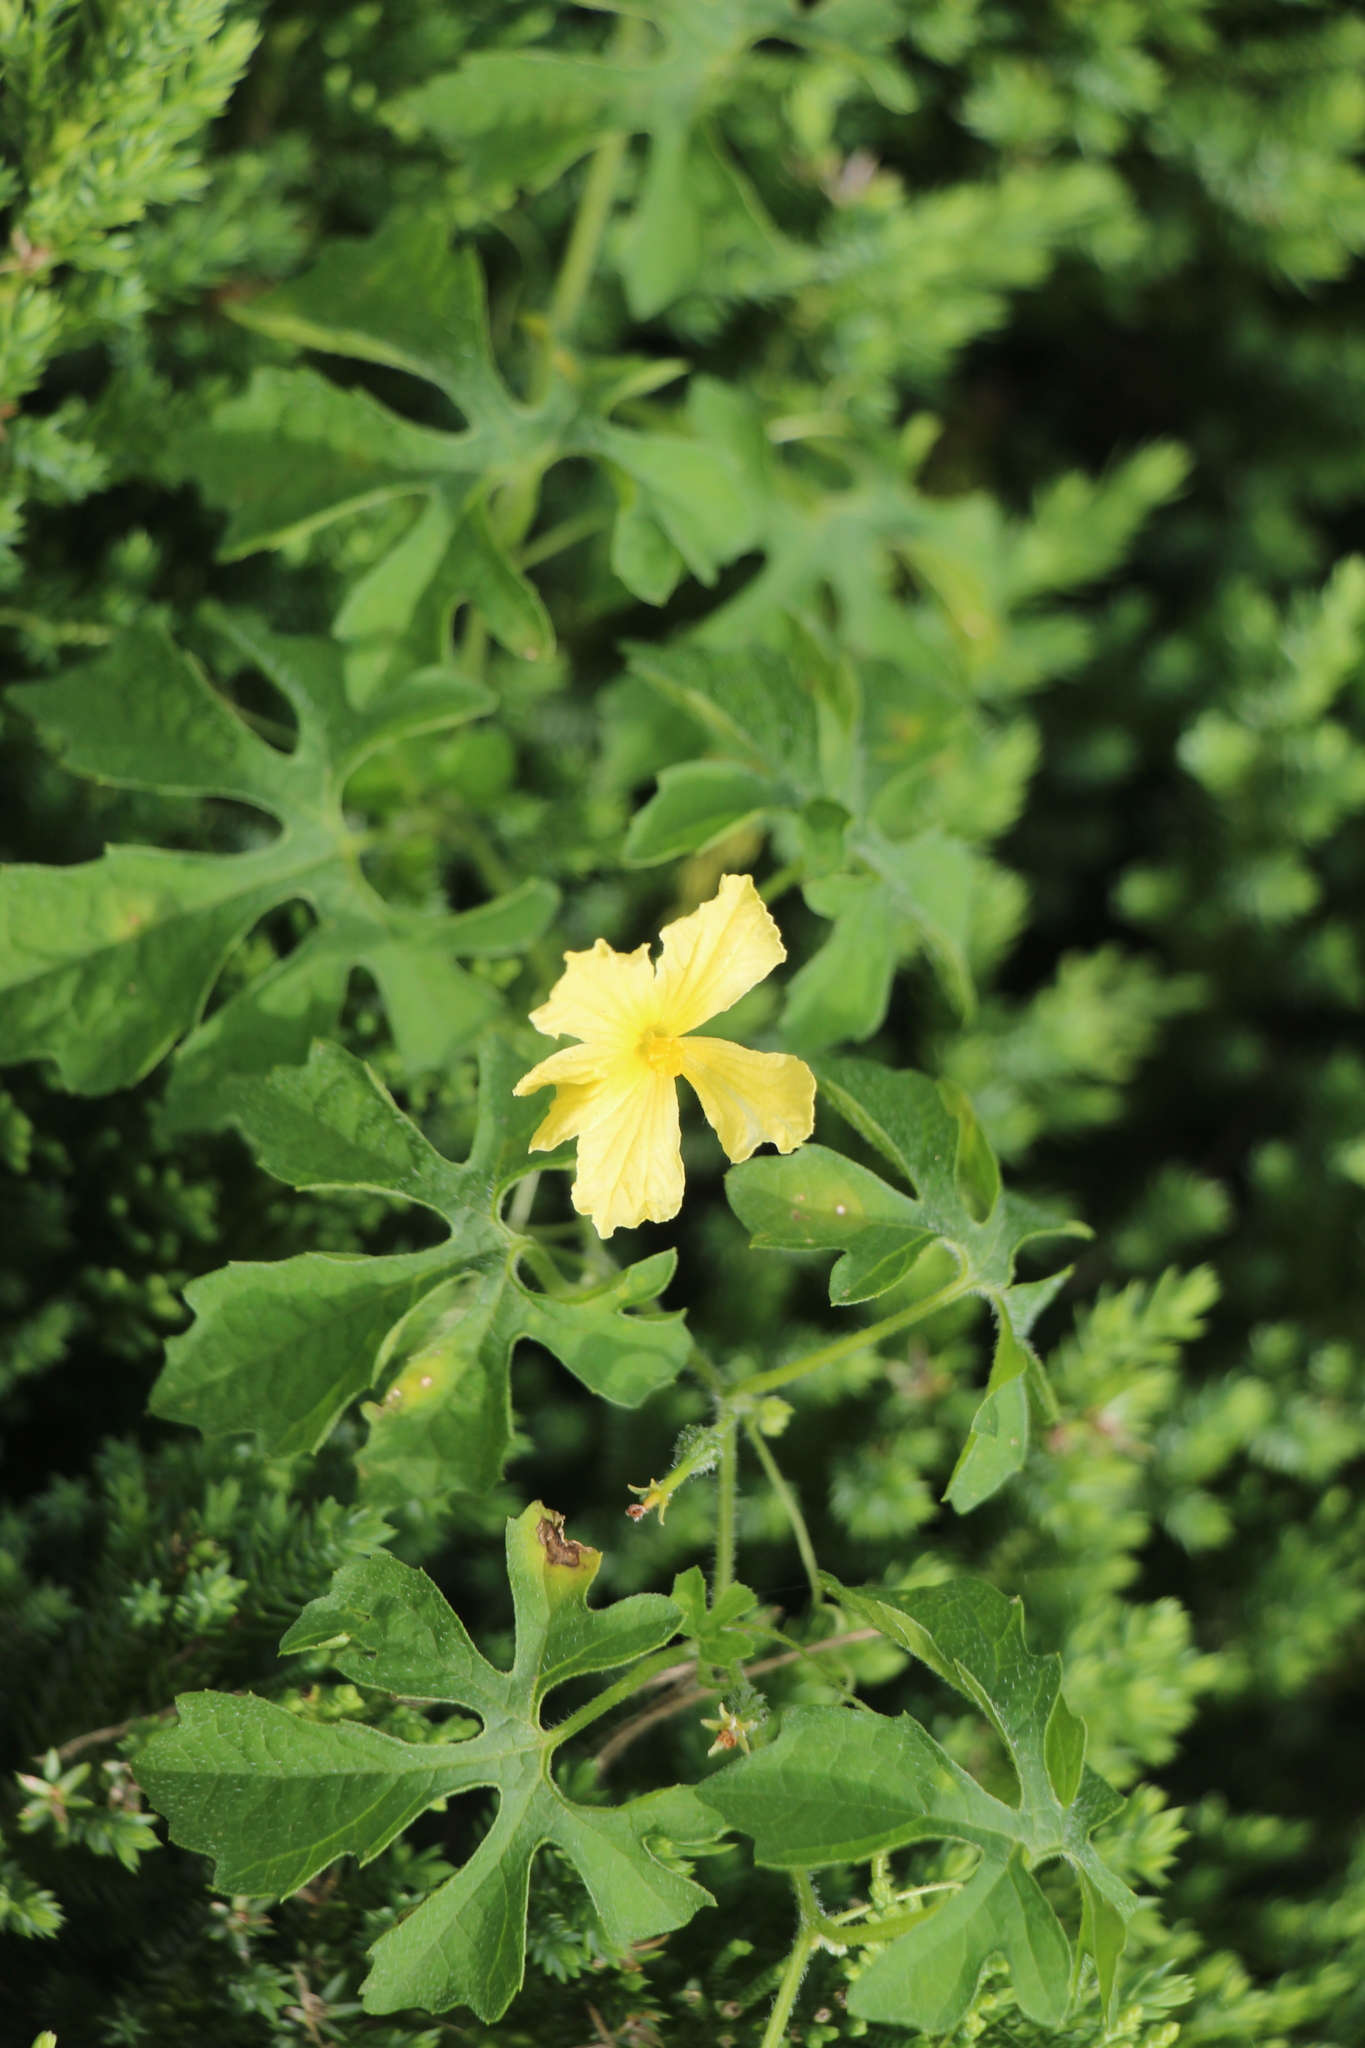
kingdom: Plantae
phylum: Tracheophyta
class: Magnoliopsida
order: Cucurbitales
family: Cucurbitaceae
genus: Momordica
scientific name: Momordica charantia
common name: Balsampear
